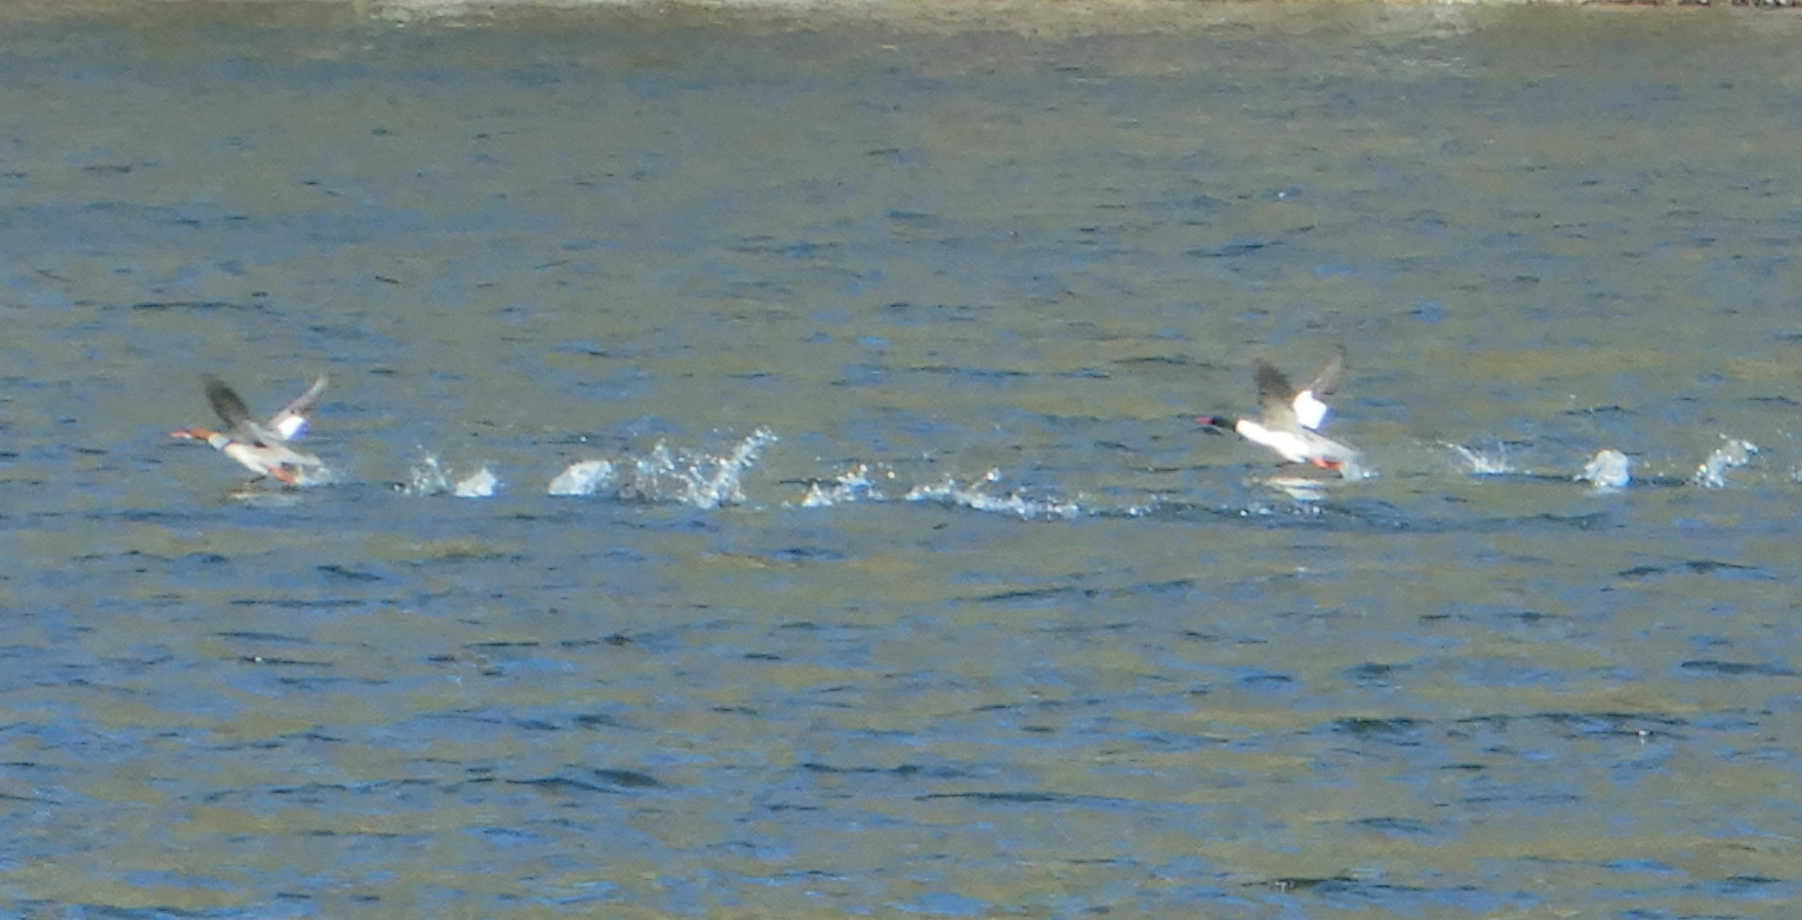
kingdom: Animalia
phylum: Chordata
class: Aves
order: Anseriformes
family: Anatidae
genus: Mergus
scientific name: Mergus merganser
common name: Common merganser
